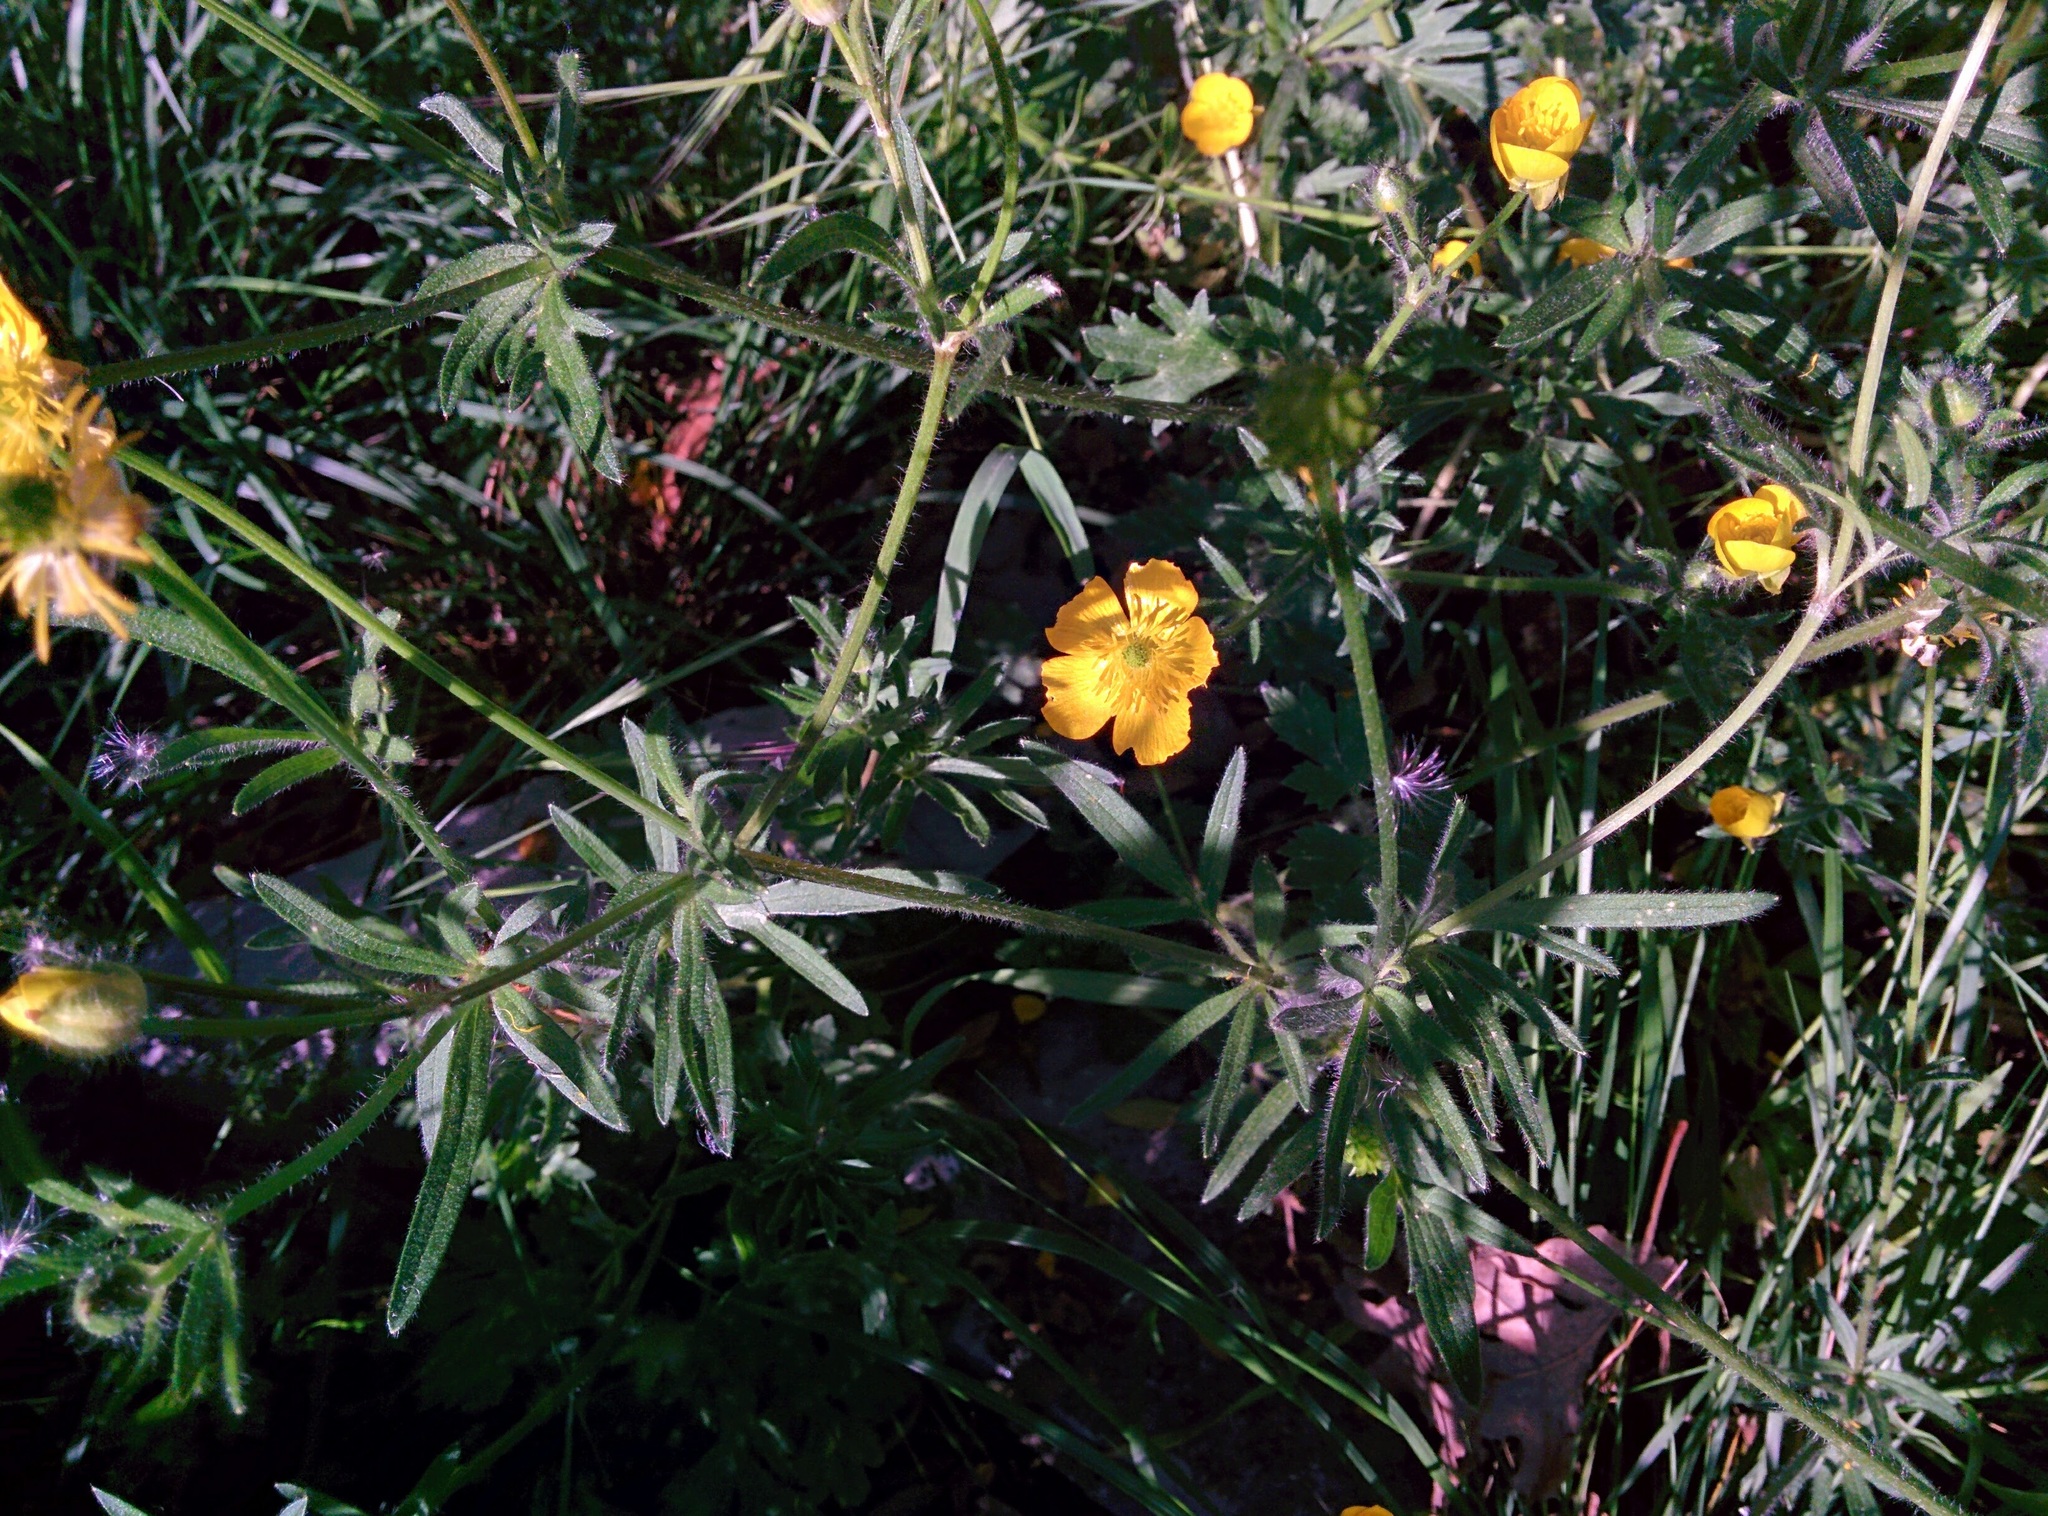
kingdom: Plantae
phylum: Tracheophyta
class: Magnoliopsida
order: Ranunculales
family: Ranunculaceae
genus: Ranunculus
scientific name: Ranunculus auricomus
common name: Goldilocks buttercup
